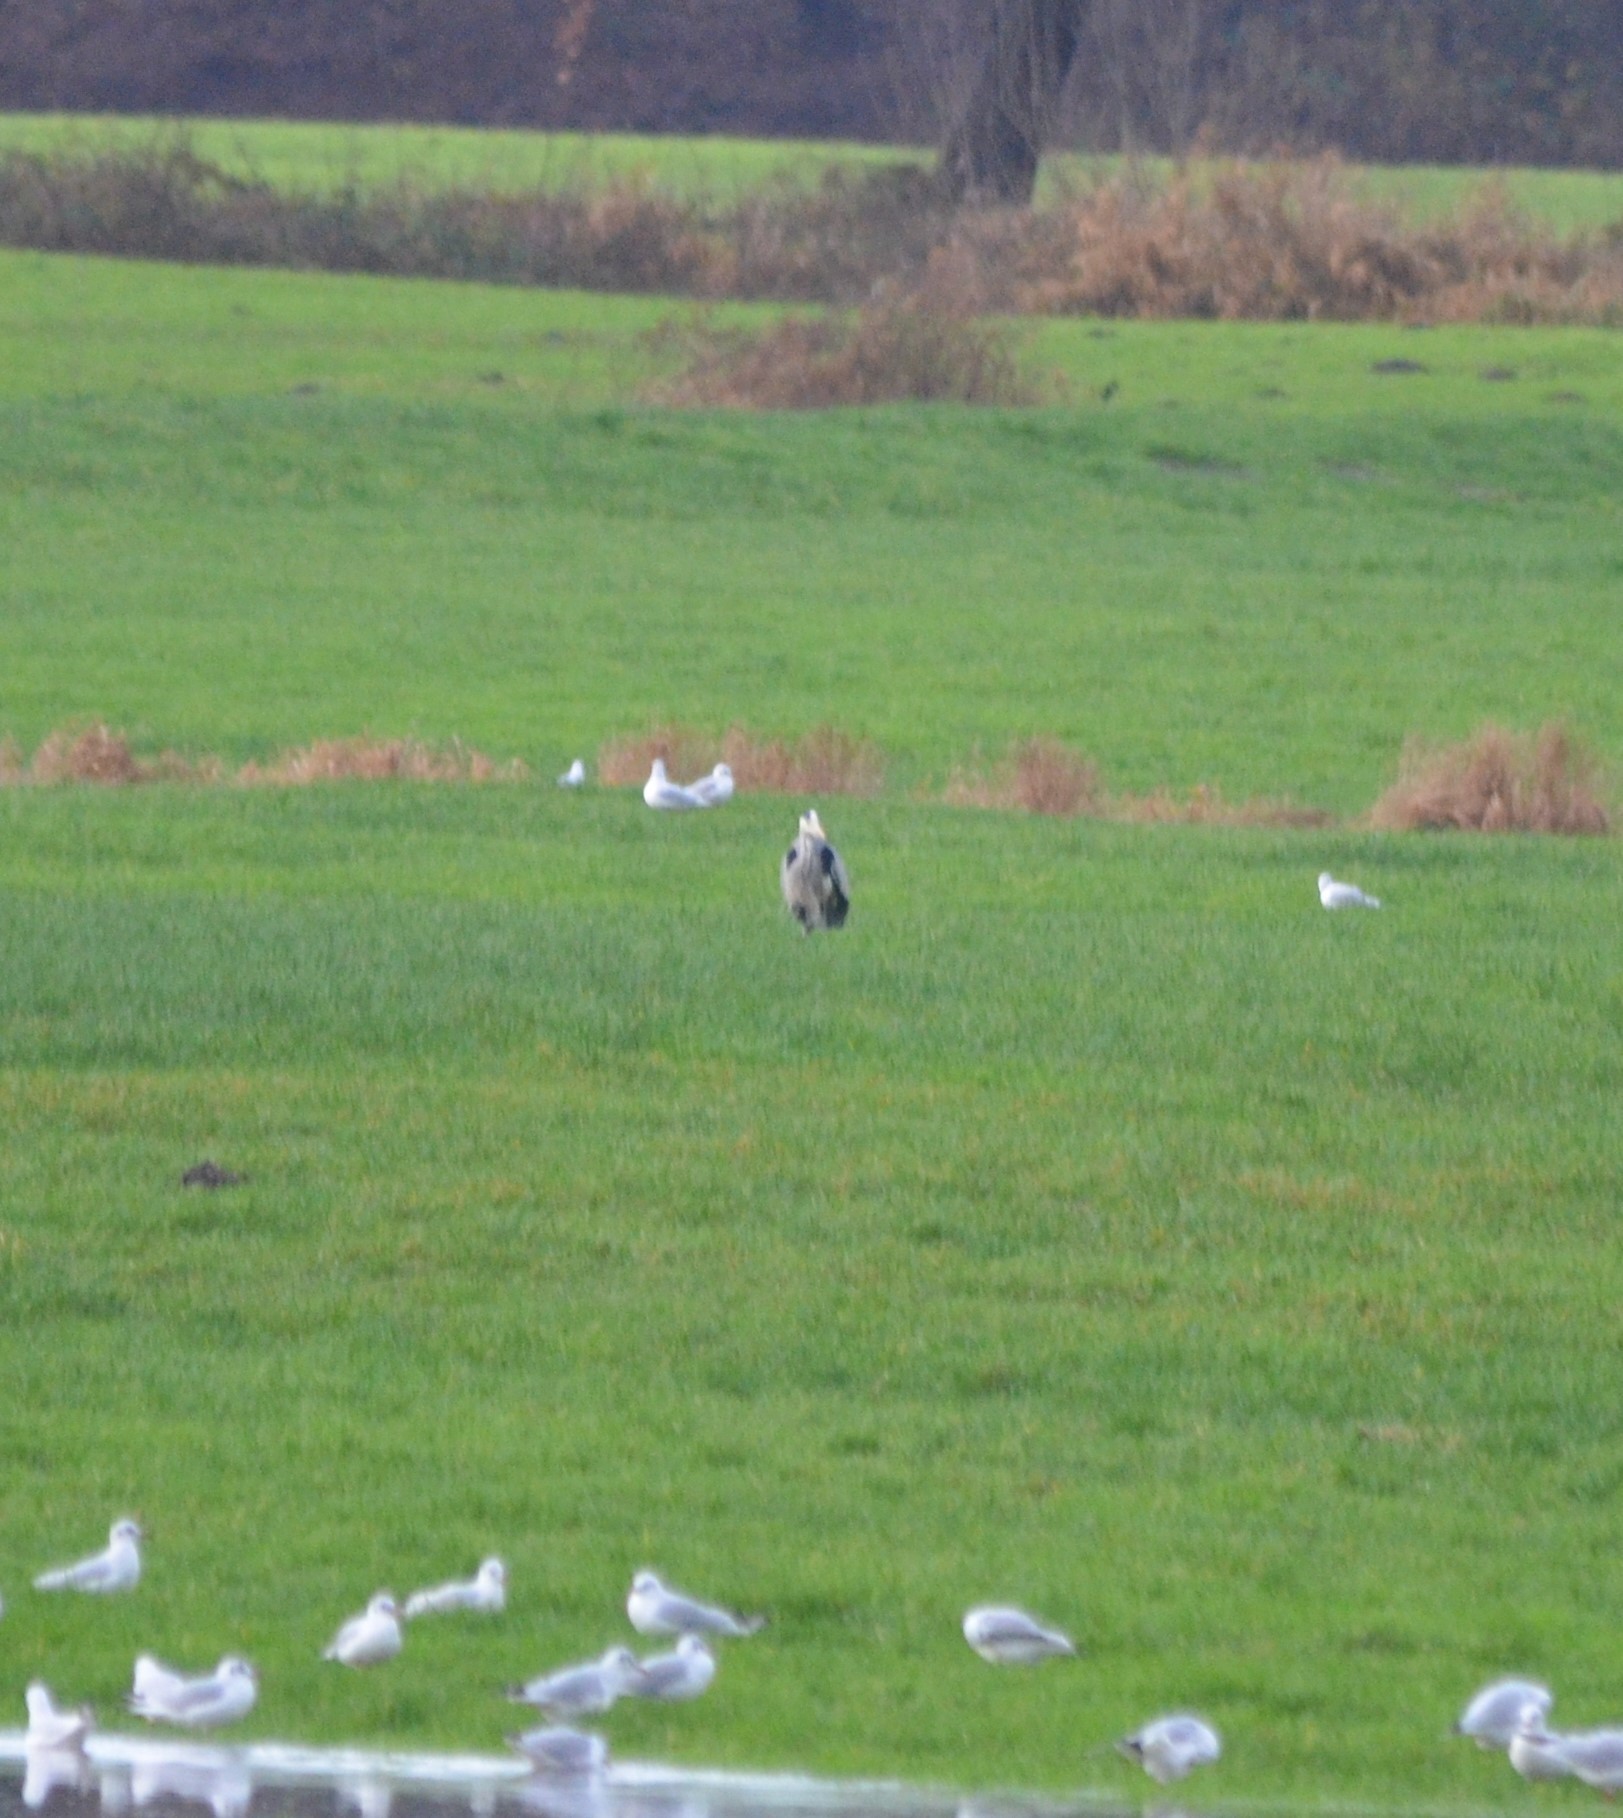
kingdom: Animalia
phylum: Chordata
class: Aves
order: Pelecaniformes
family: Ardeidae
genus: Ardea
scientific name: Ardea cinerea
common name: Grey heron
